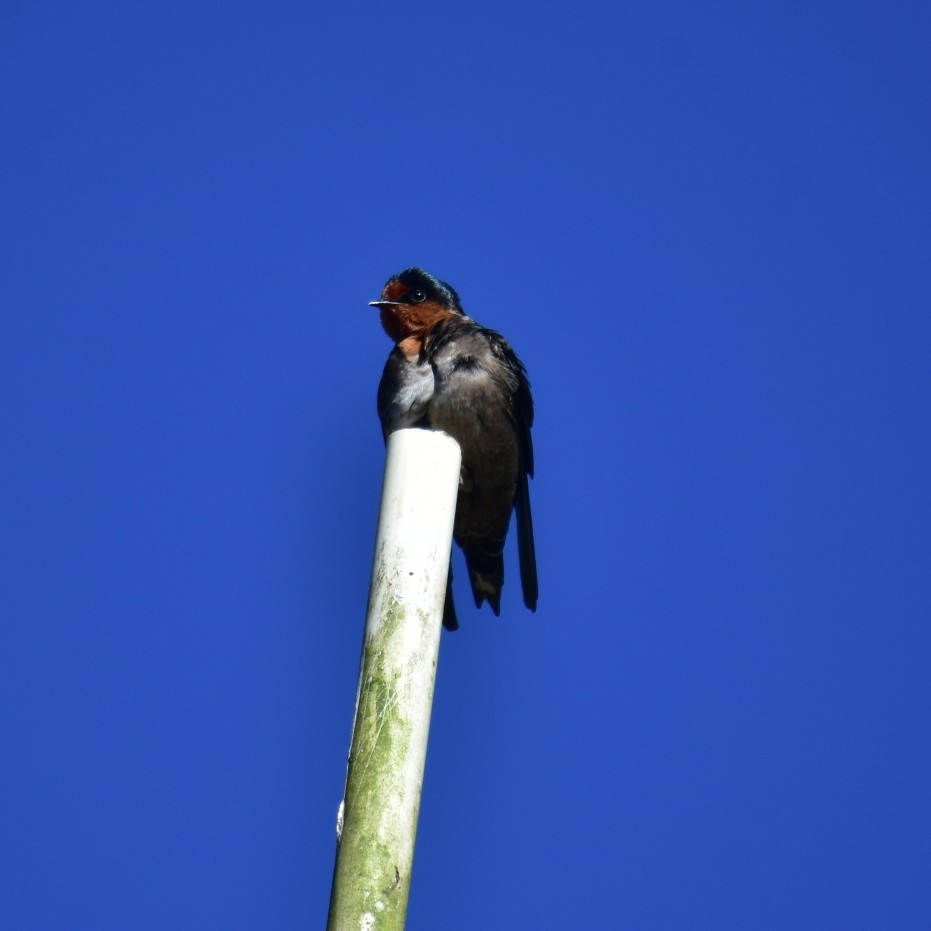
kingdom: Animalia
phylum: Chordata
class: Aves
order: Passeriformes
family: Hirundinidae
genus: Hirundo
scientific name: Hirundo domicola
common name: Hill swallow
